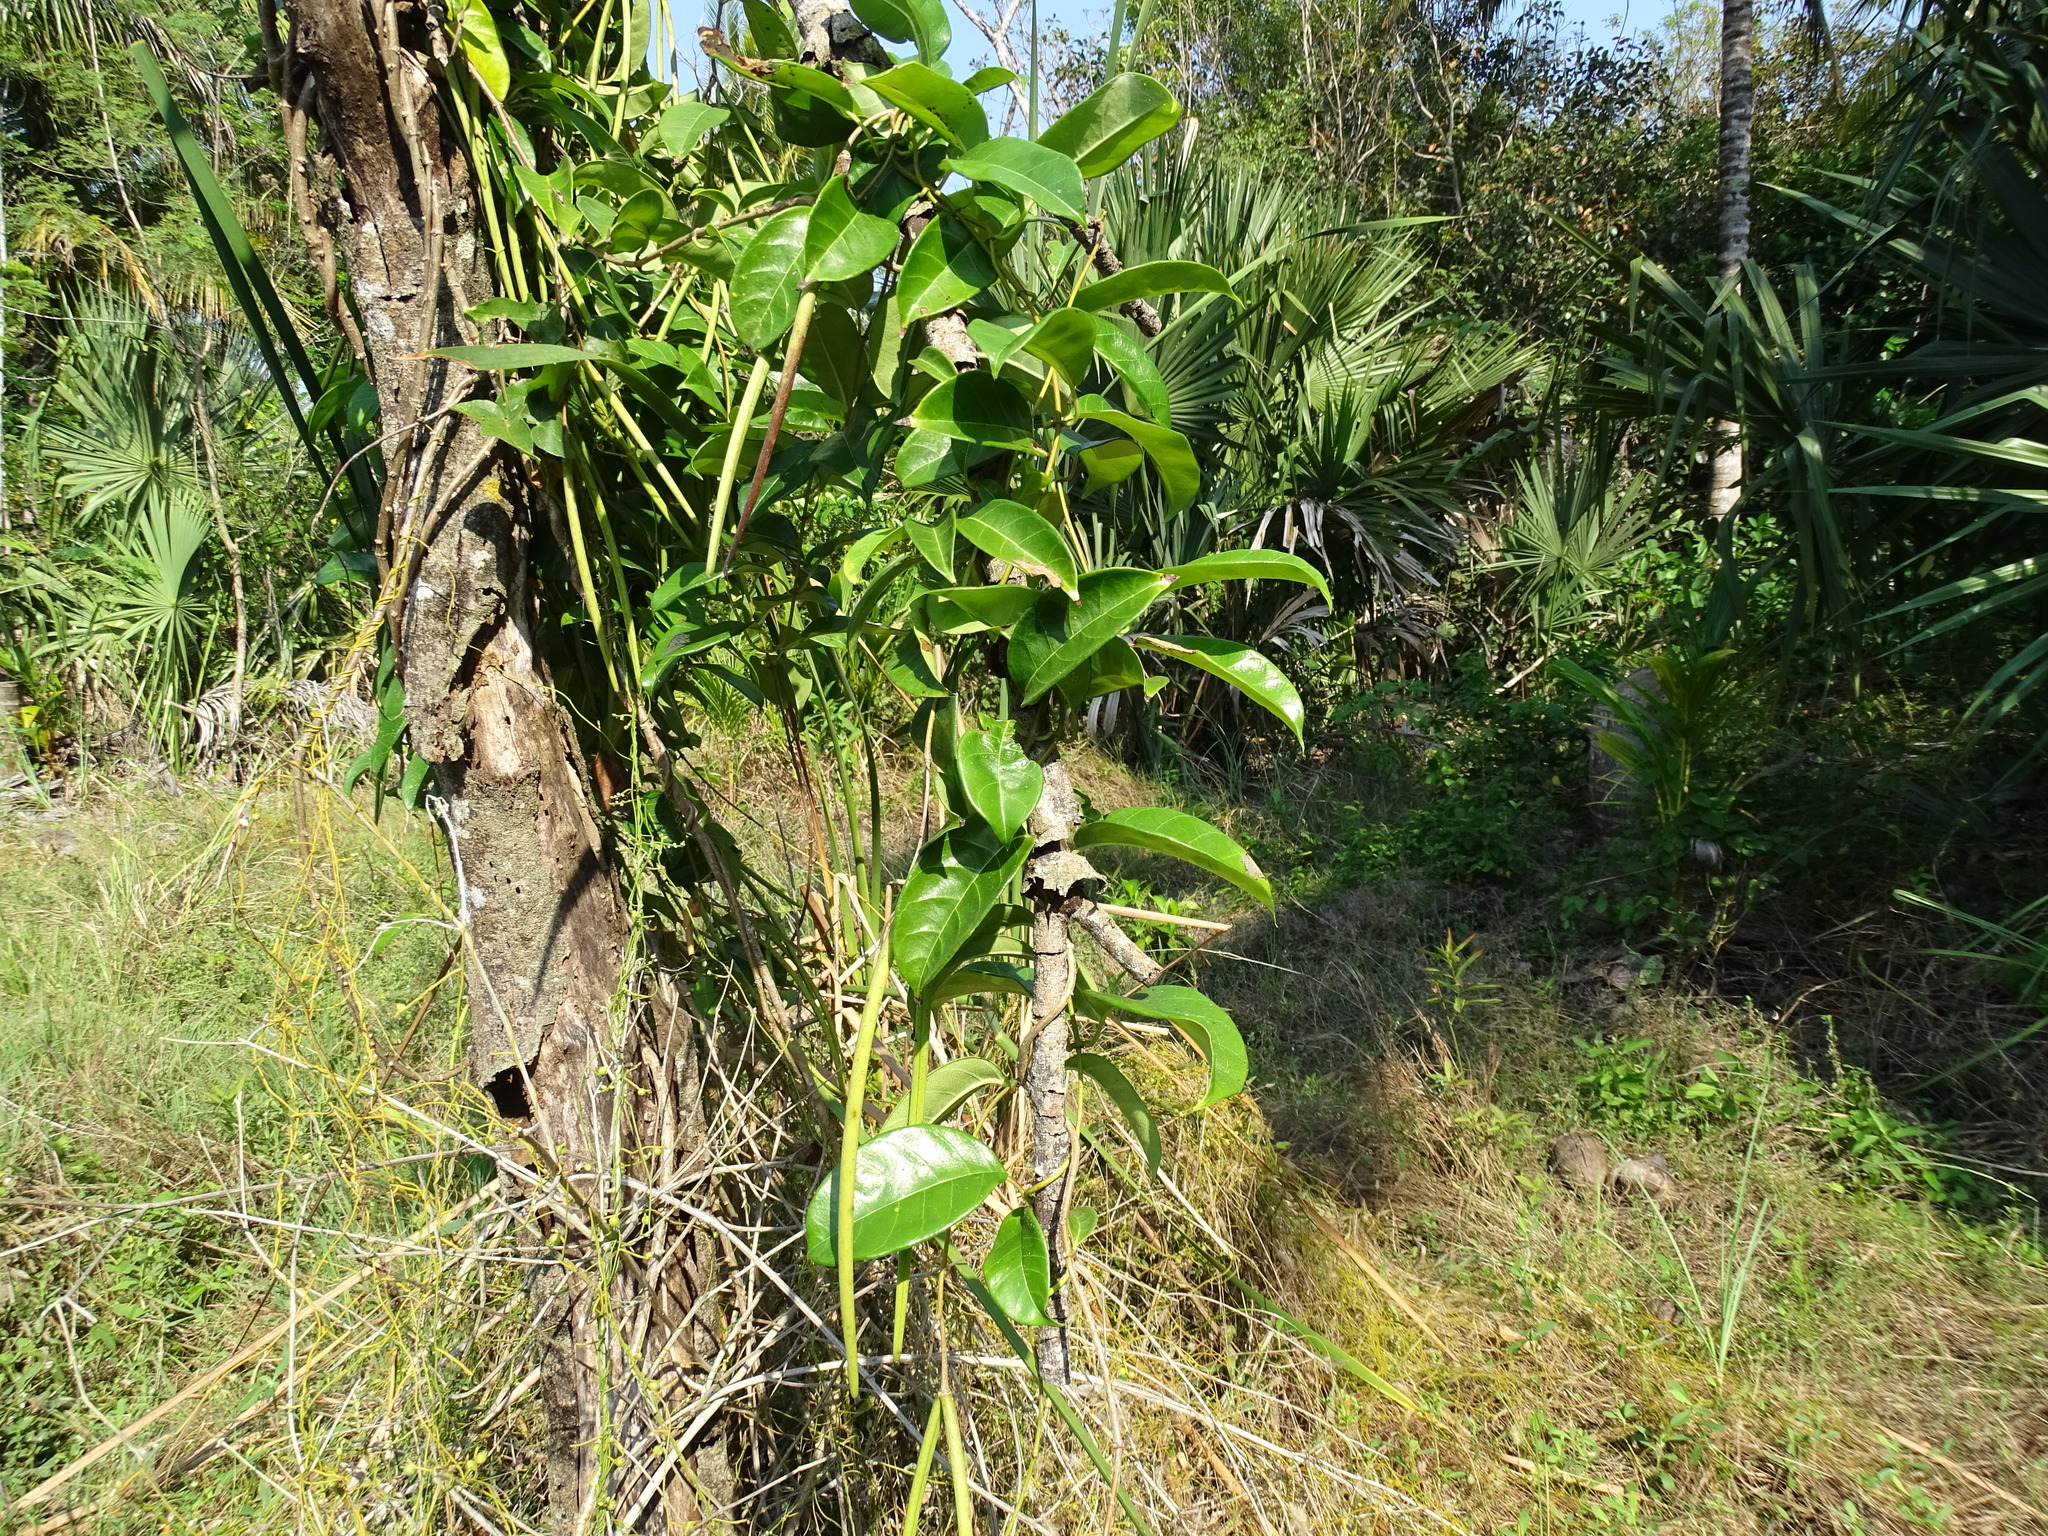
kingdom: Plantae
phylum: Tracheophyta
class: Magnoliopsida
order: Gentianales
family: Apocynaceae
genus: Pentalinon
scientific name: Pentalinon andrieuxii
